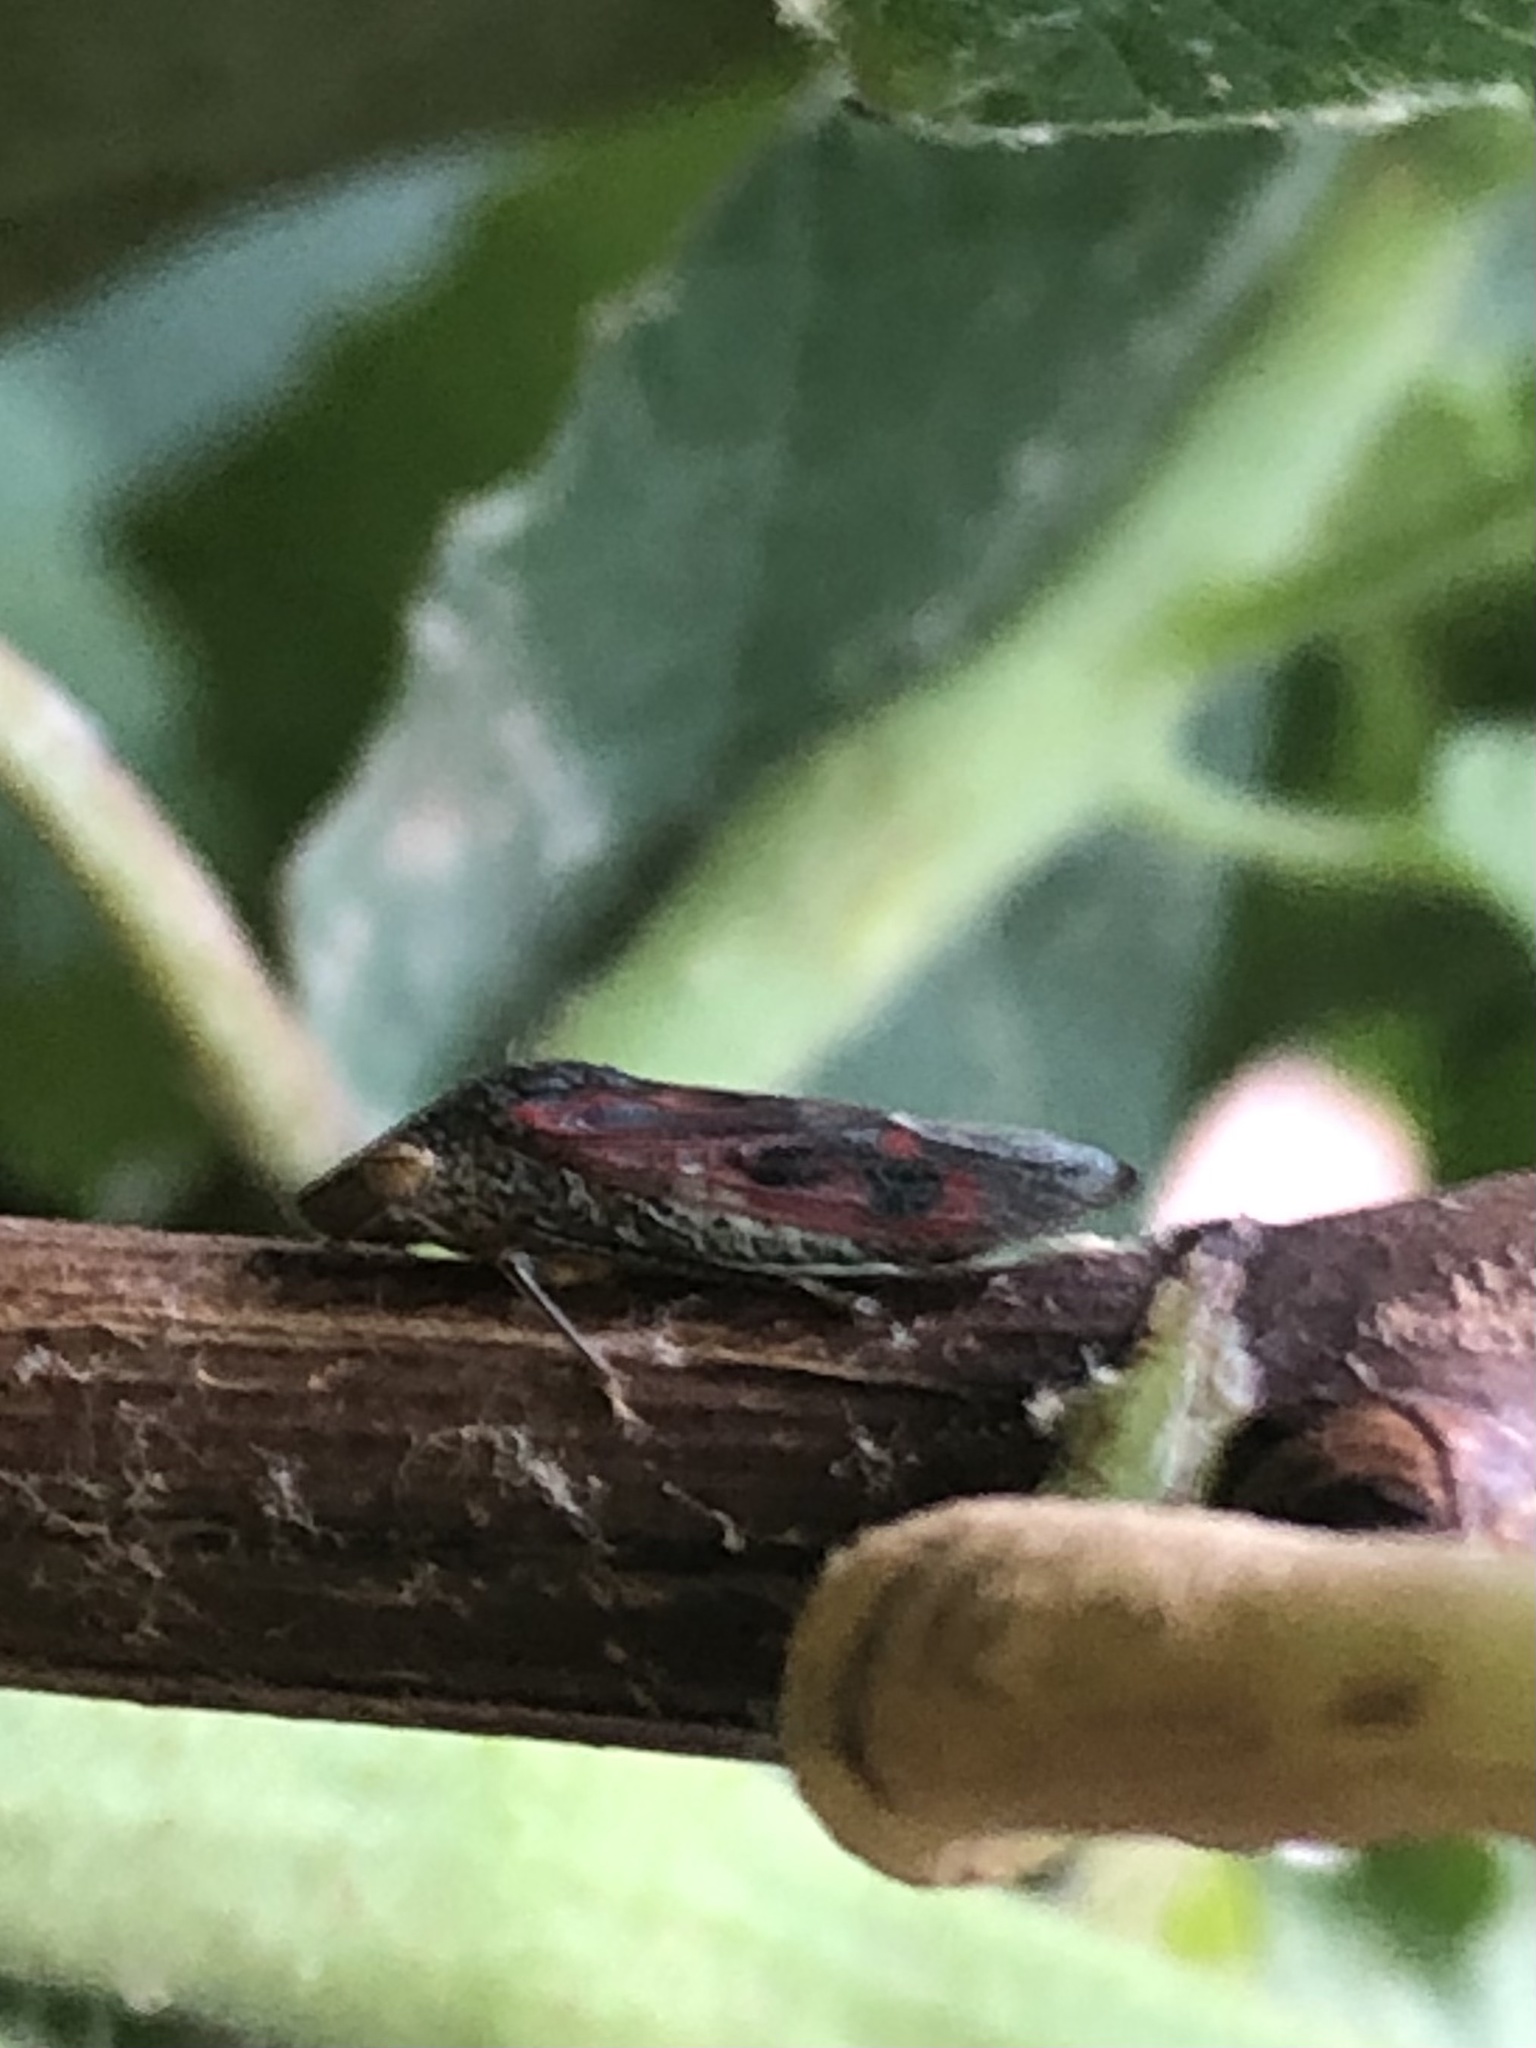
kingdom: Animalia
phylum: Arthropoda
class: Insecta
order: Hemiptera
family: Cicadellidae
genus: Homalodisca
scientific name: Homalodisca vitripennis
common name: Glassy-winged sharpshooter
